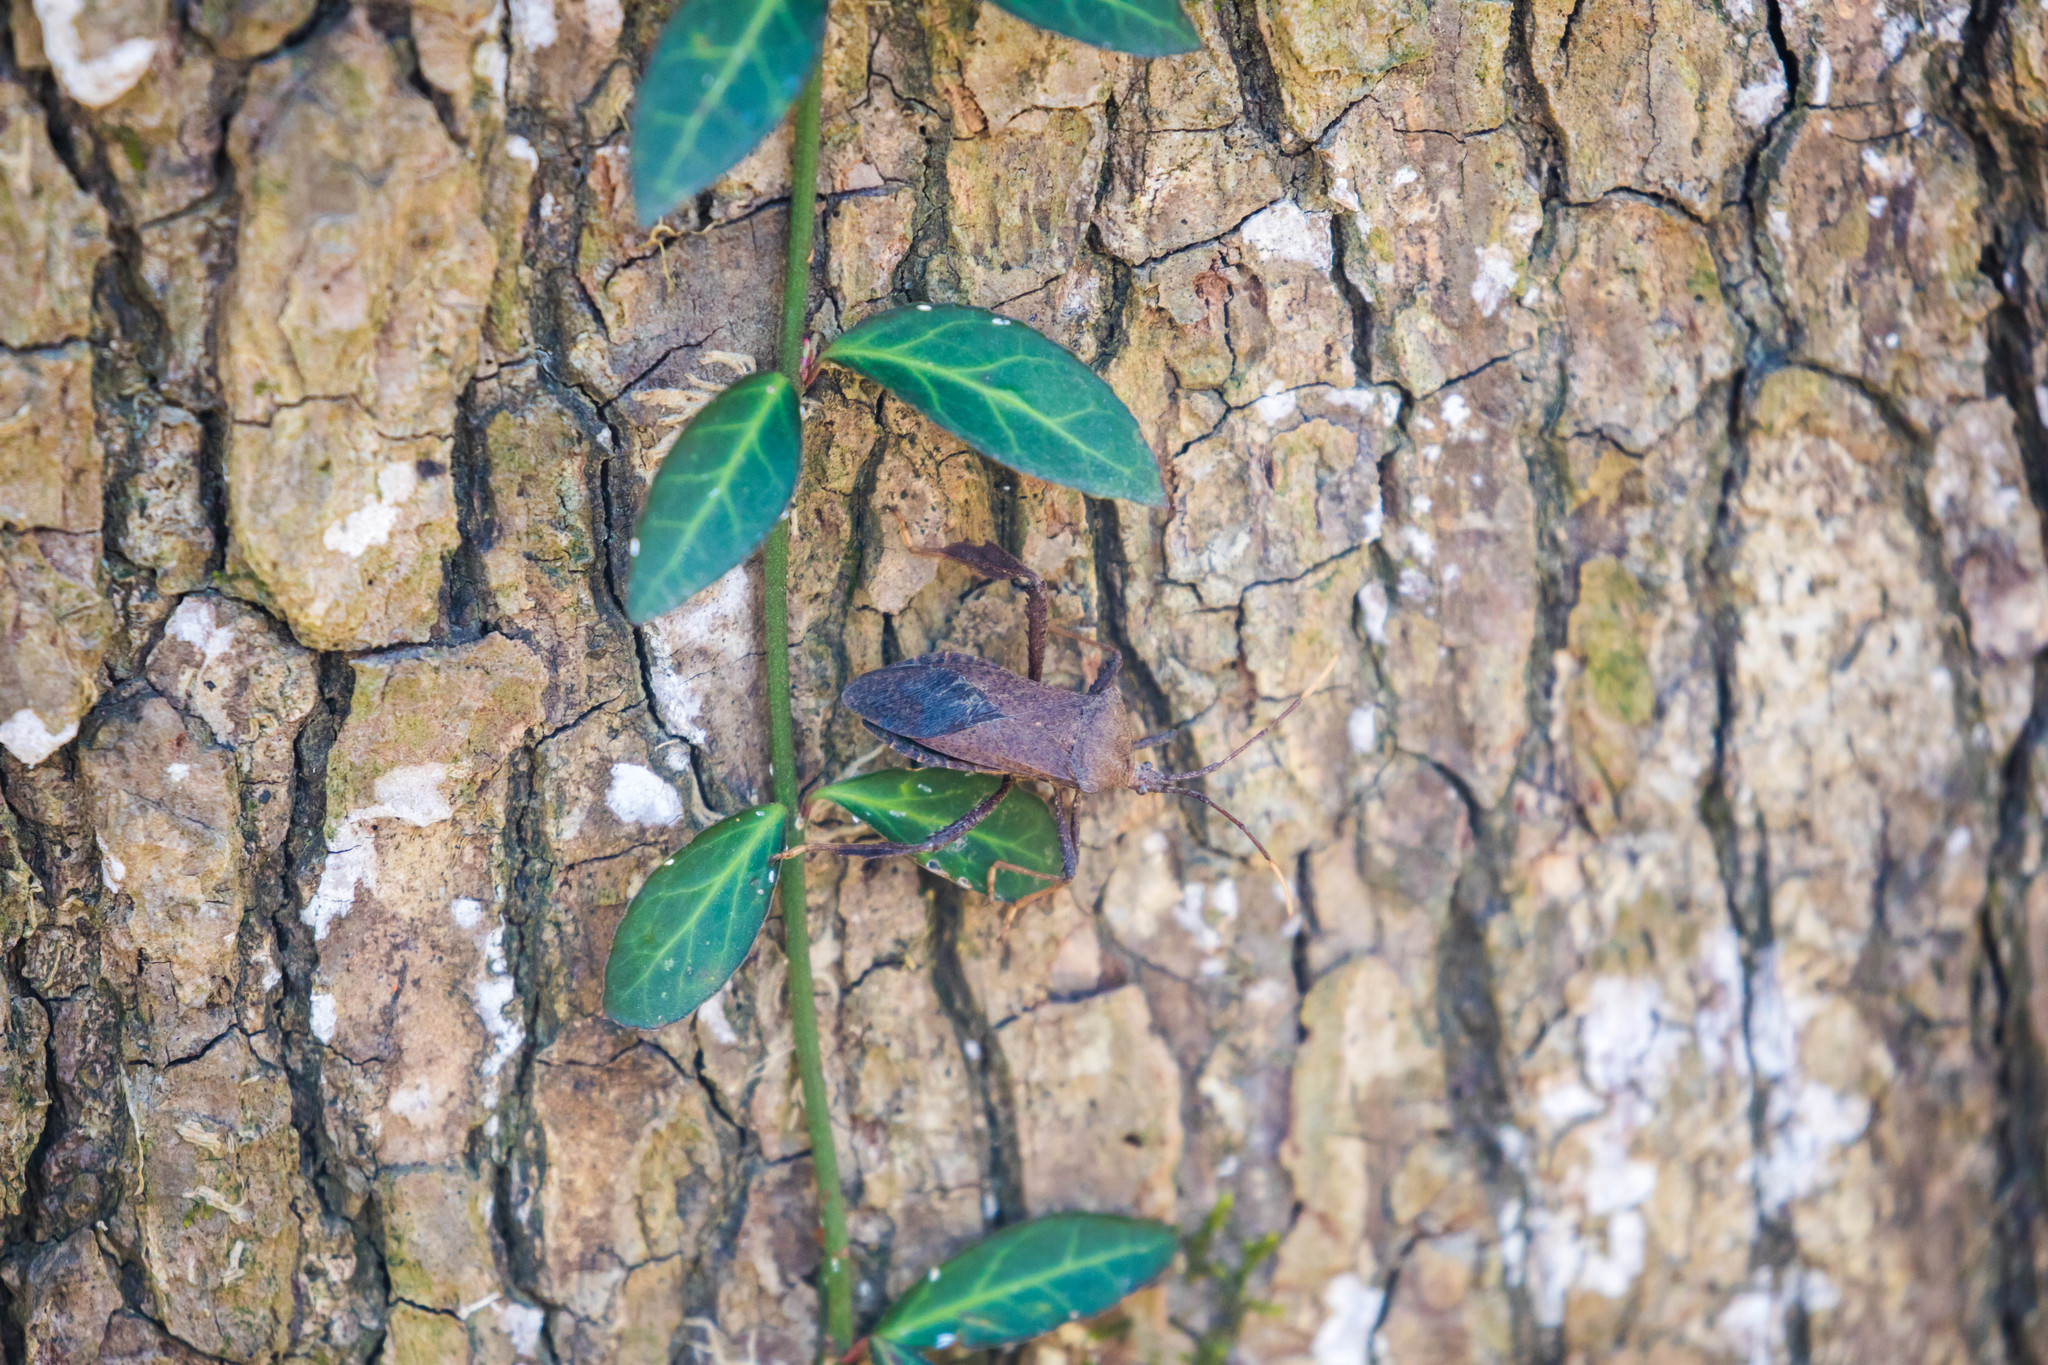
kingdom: Animalia
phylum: Arthropoda
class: Insecta
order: Hemiptera
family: Coreidae
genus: Acanthocephala
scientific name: Acanthocephala terminalis
